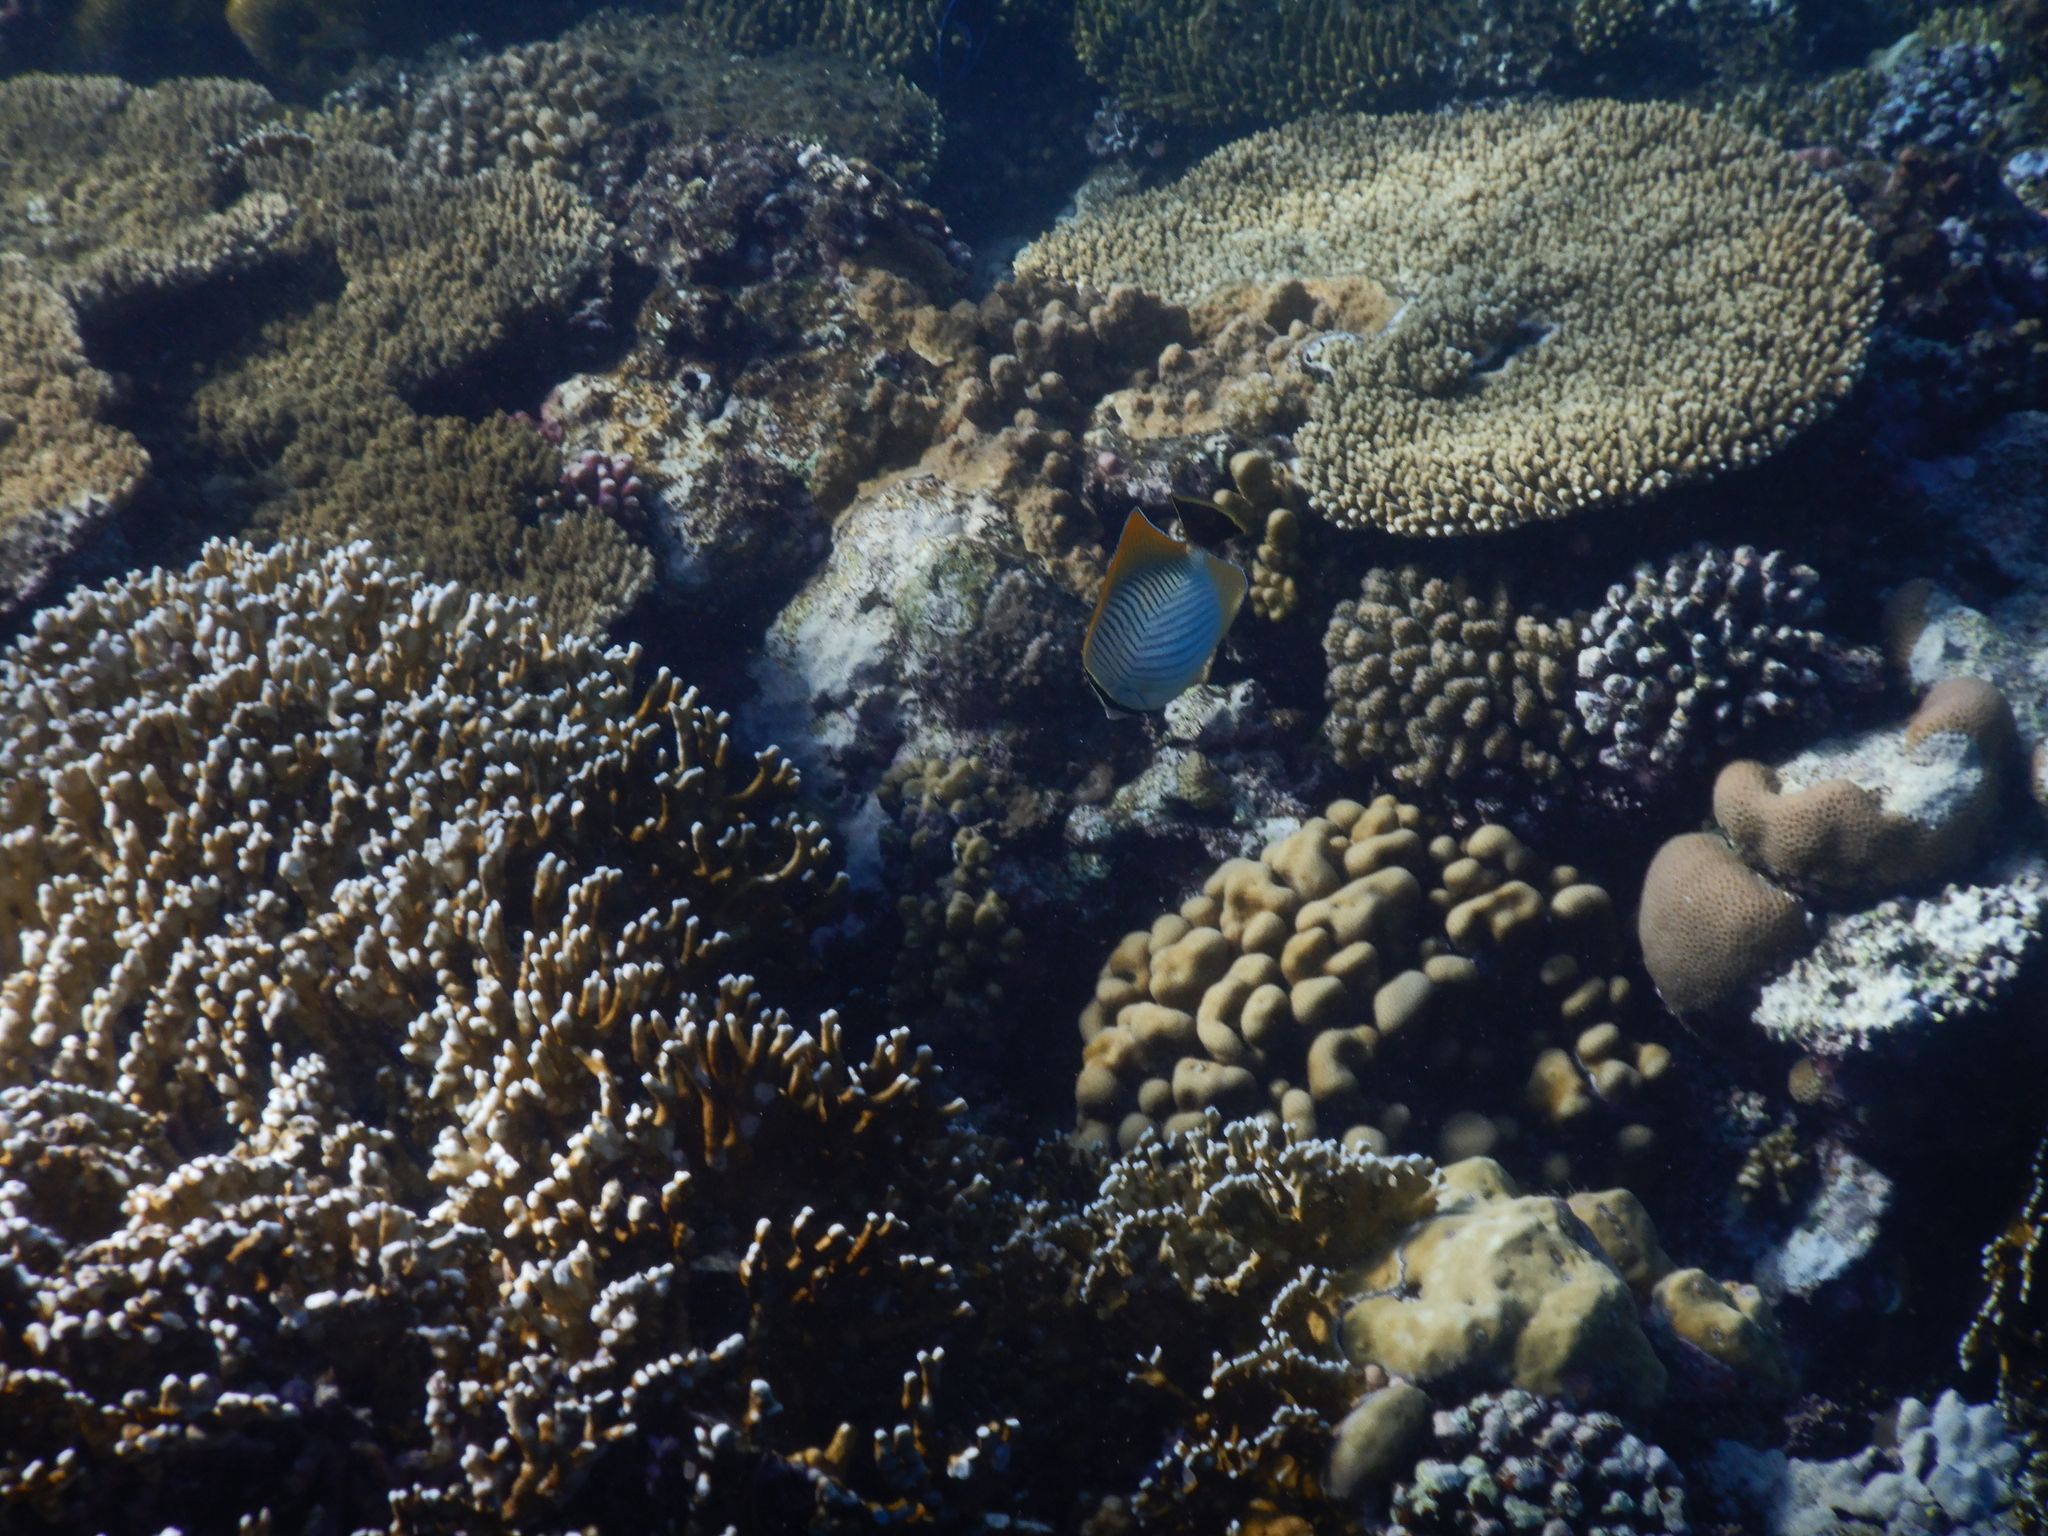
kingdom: Animalia
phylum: Chordata
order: Perciformes
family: Chaetodontidae
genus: Chaetodon
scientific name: Chaetodon trifascialis
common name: Chevroned butterflyfish
